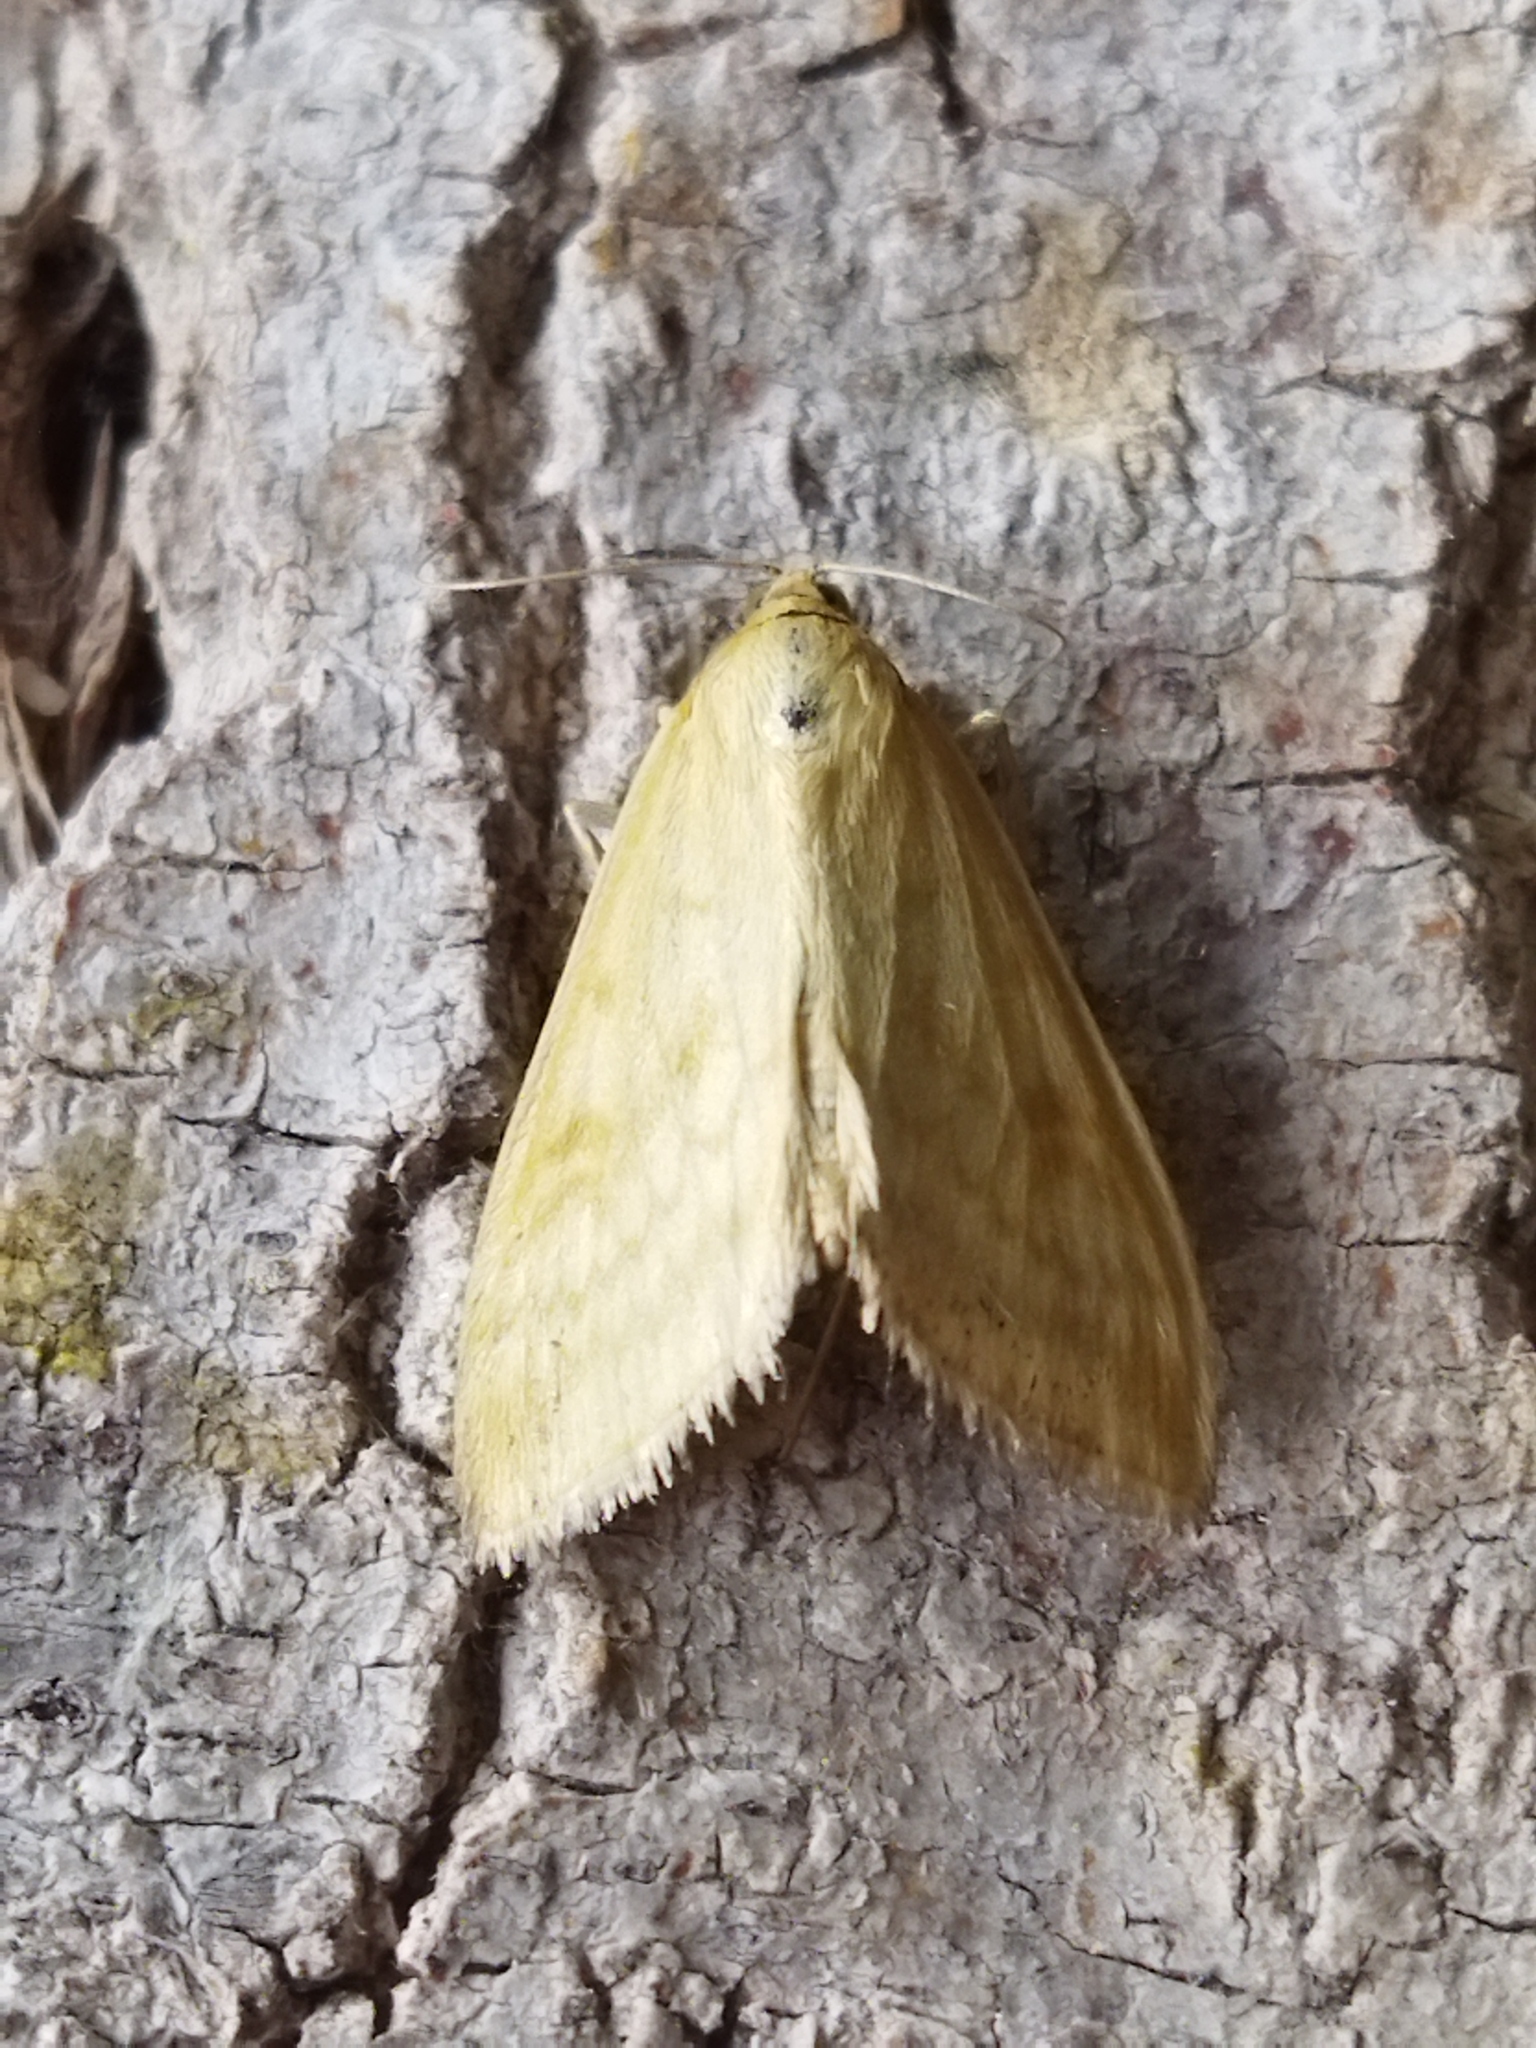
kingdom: Animalia
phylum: Arthropoda
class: Insecta
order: Lepidoptera
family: Crambidae
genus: Sitochroa
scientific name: Sitochroa verticalis
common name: Lesser pearl
